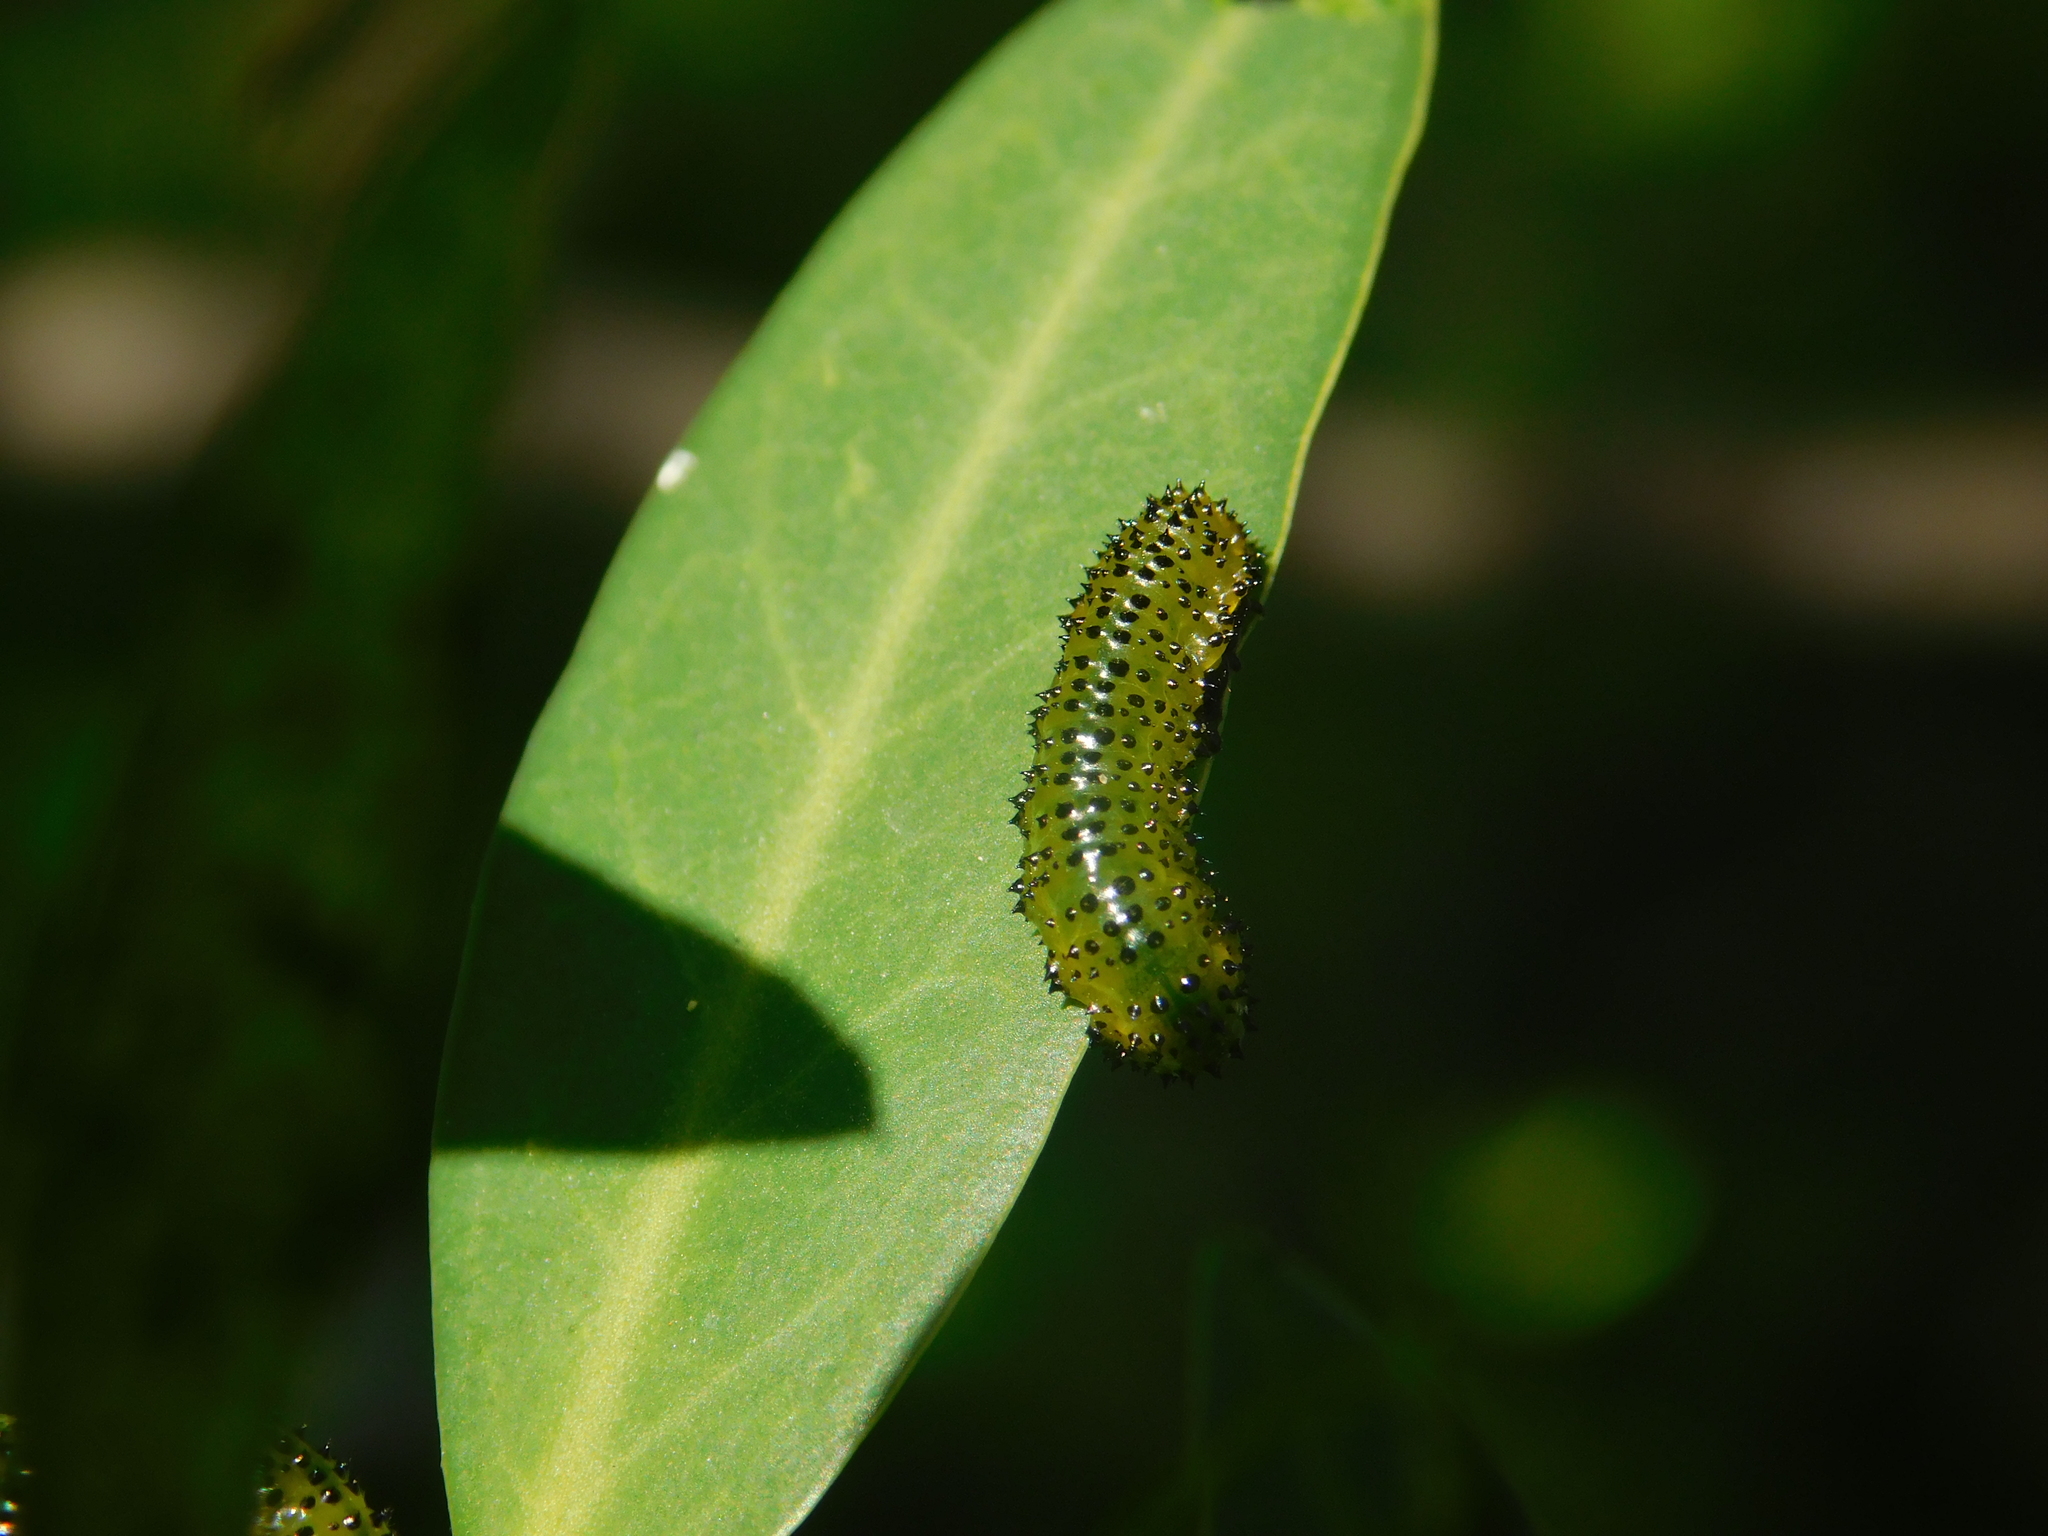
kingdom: Animalia
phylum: Arthropoda
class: Insecta
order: Hymenoptera
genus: Adurgoa
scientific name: Adurgoa
